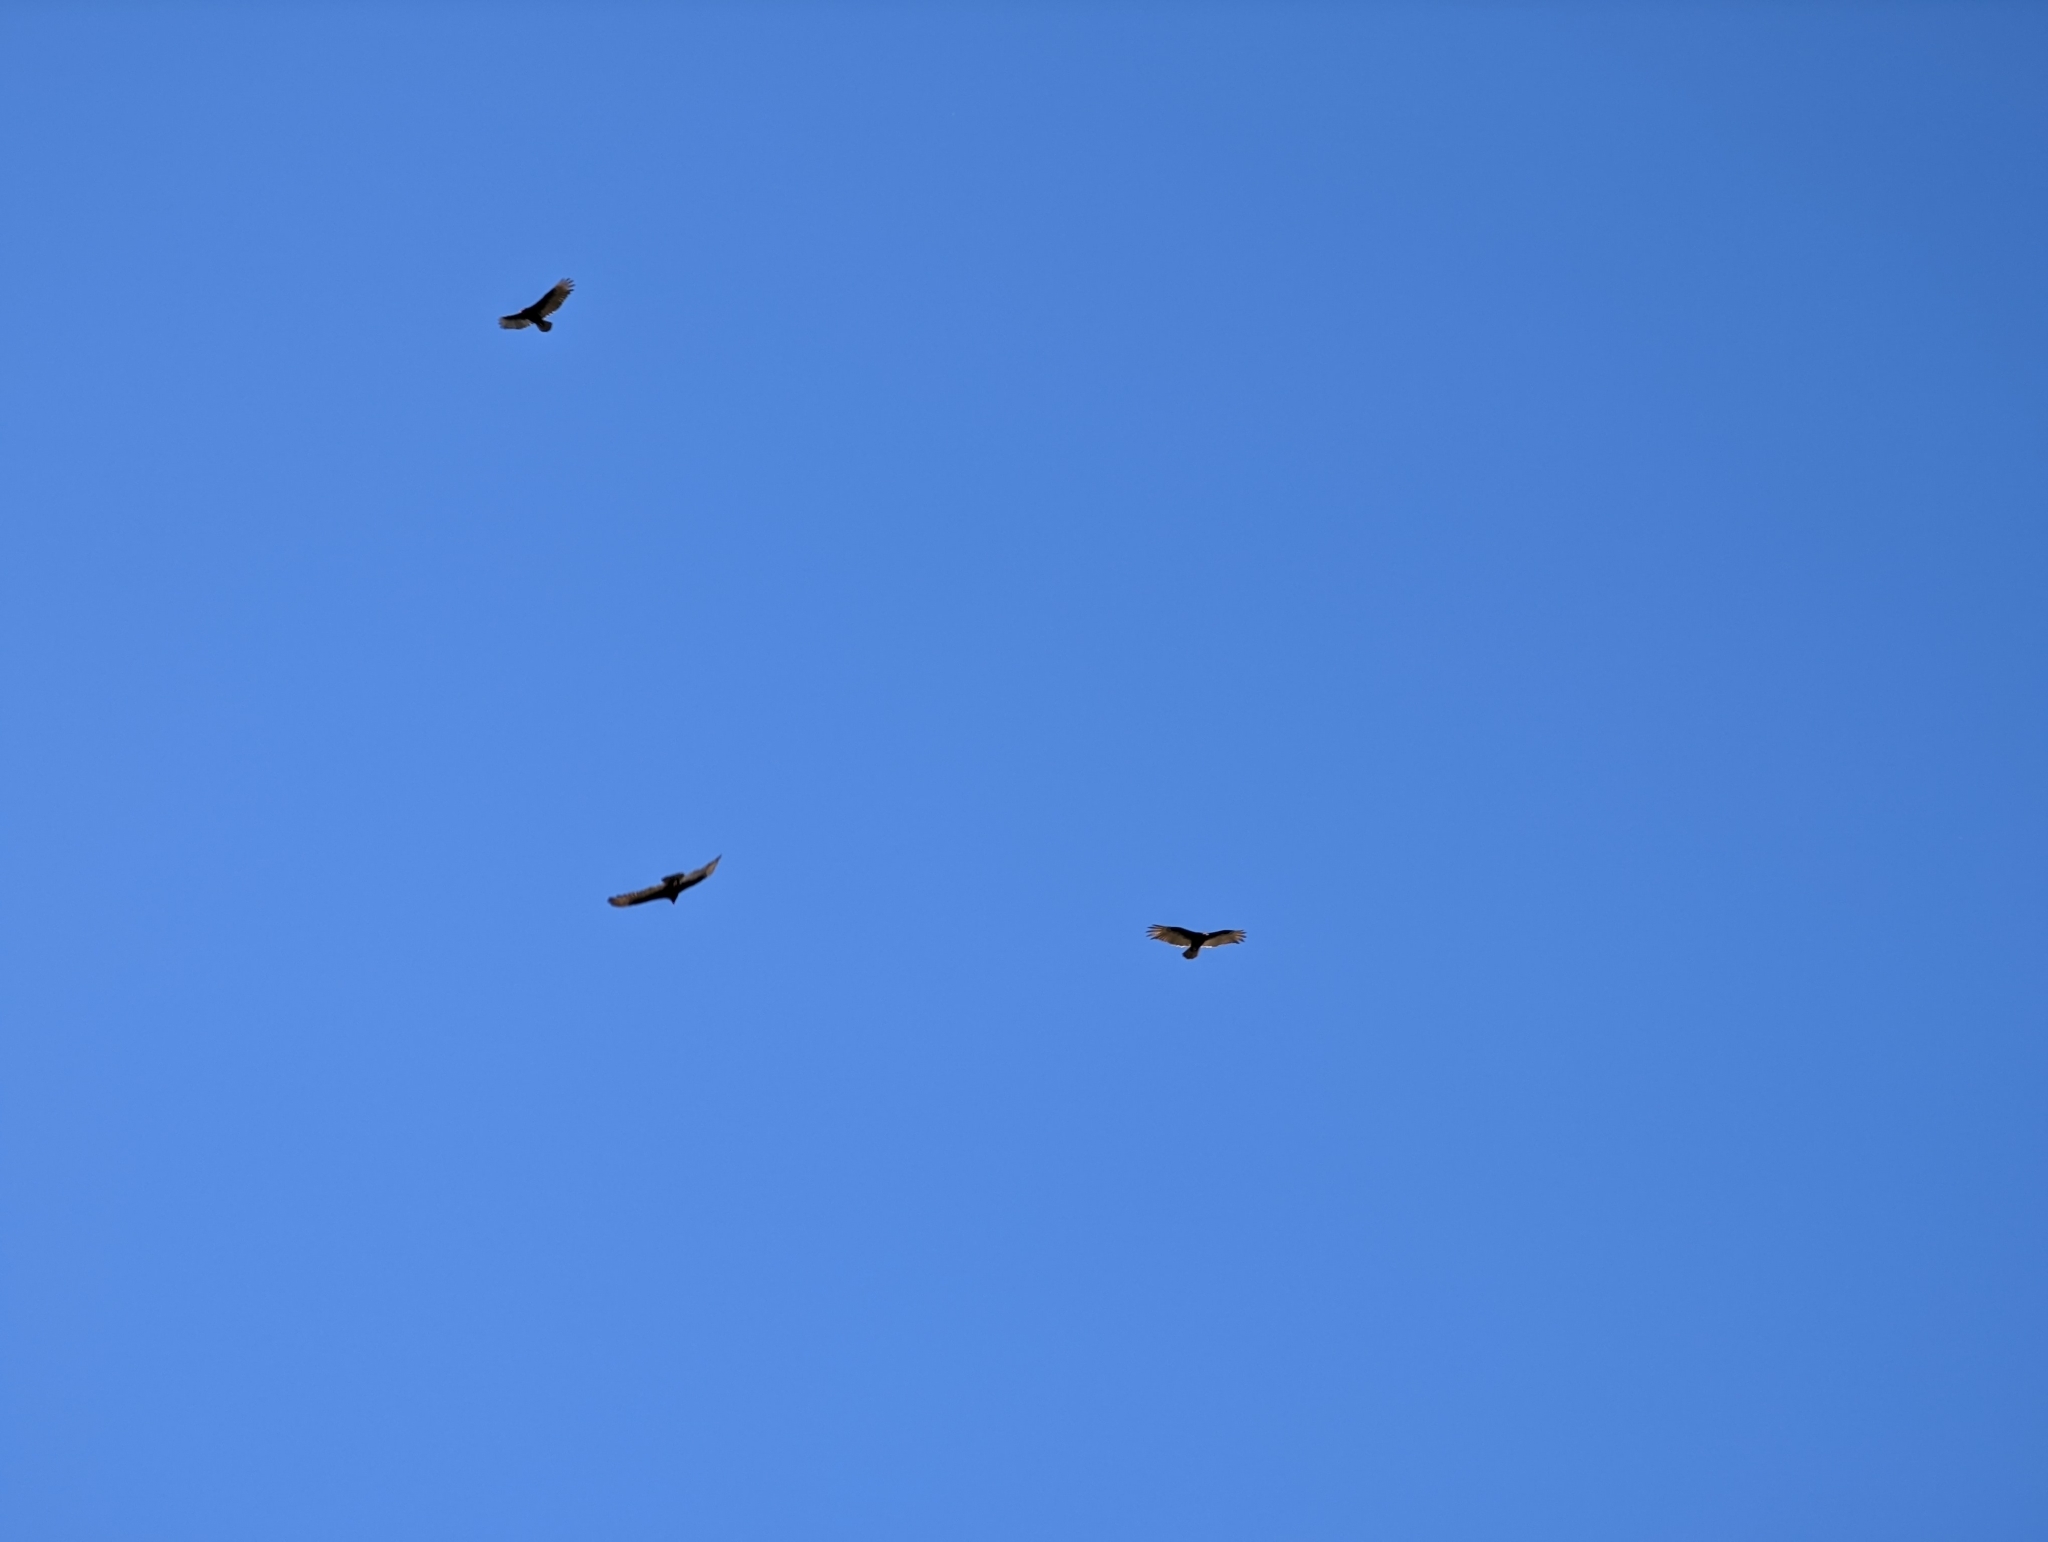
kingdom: Animalia
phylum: Chordata
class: Aves
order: Accipitriformes
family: Cathartidae
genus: Cathartes
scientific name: Cathartes aura
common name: Turkey vulture
